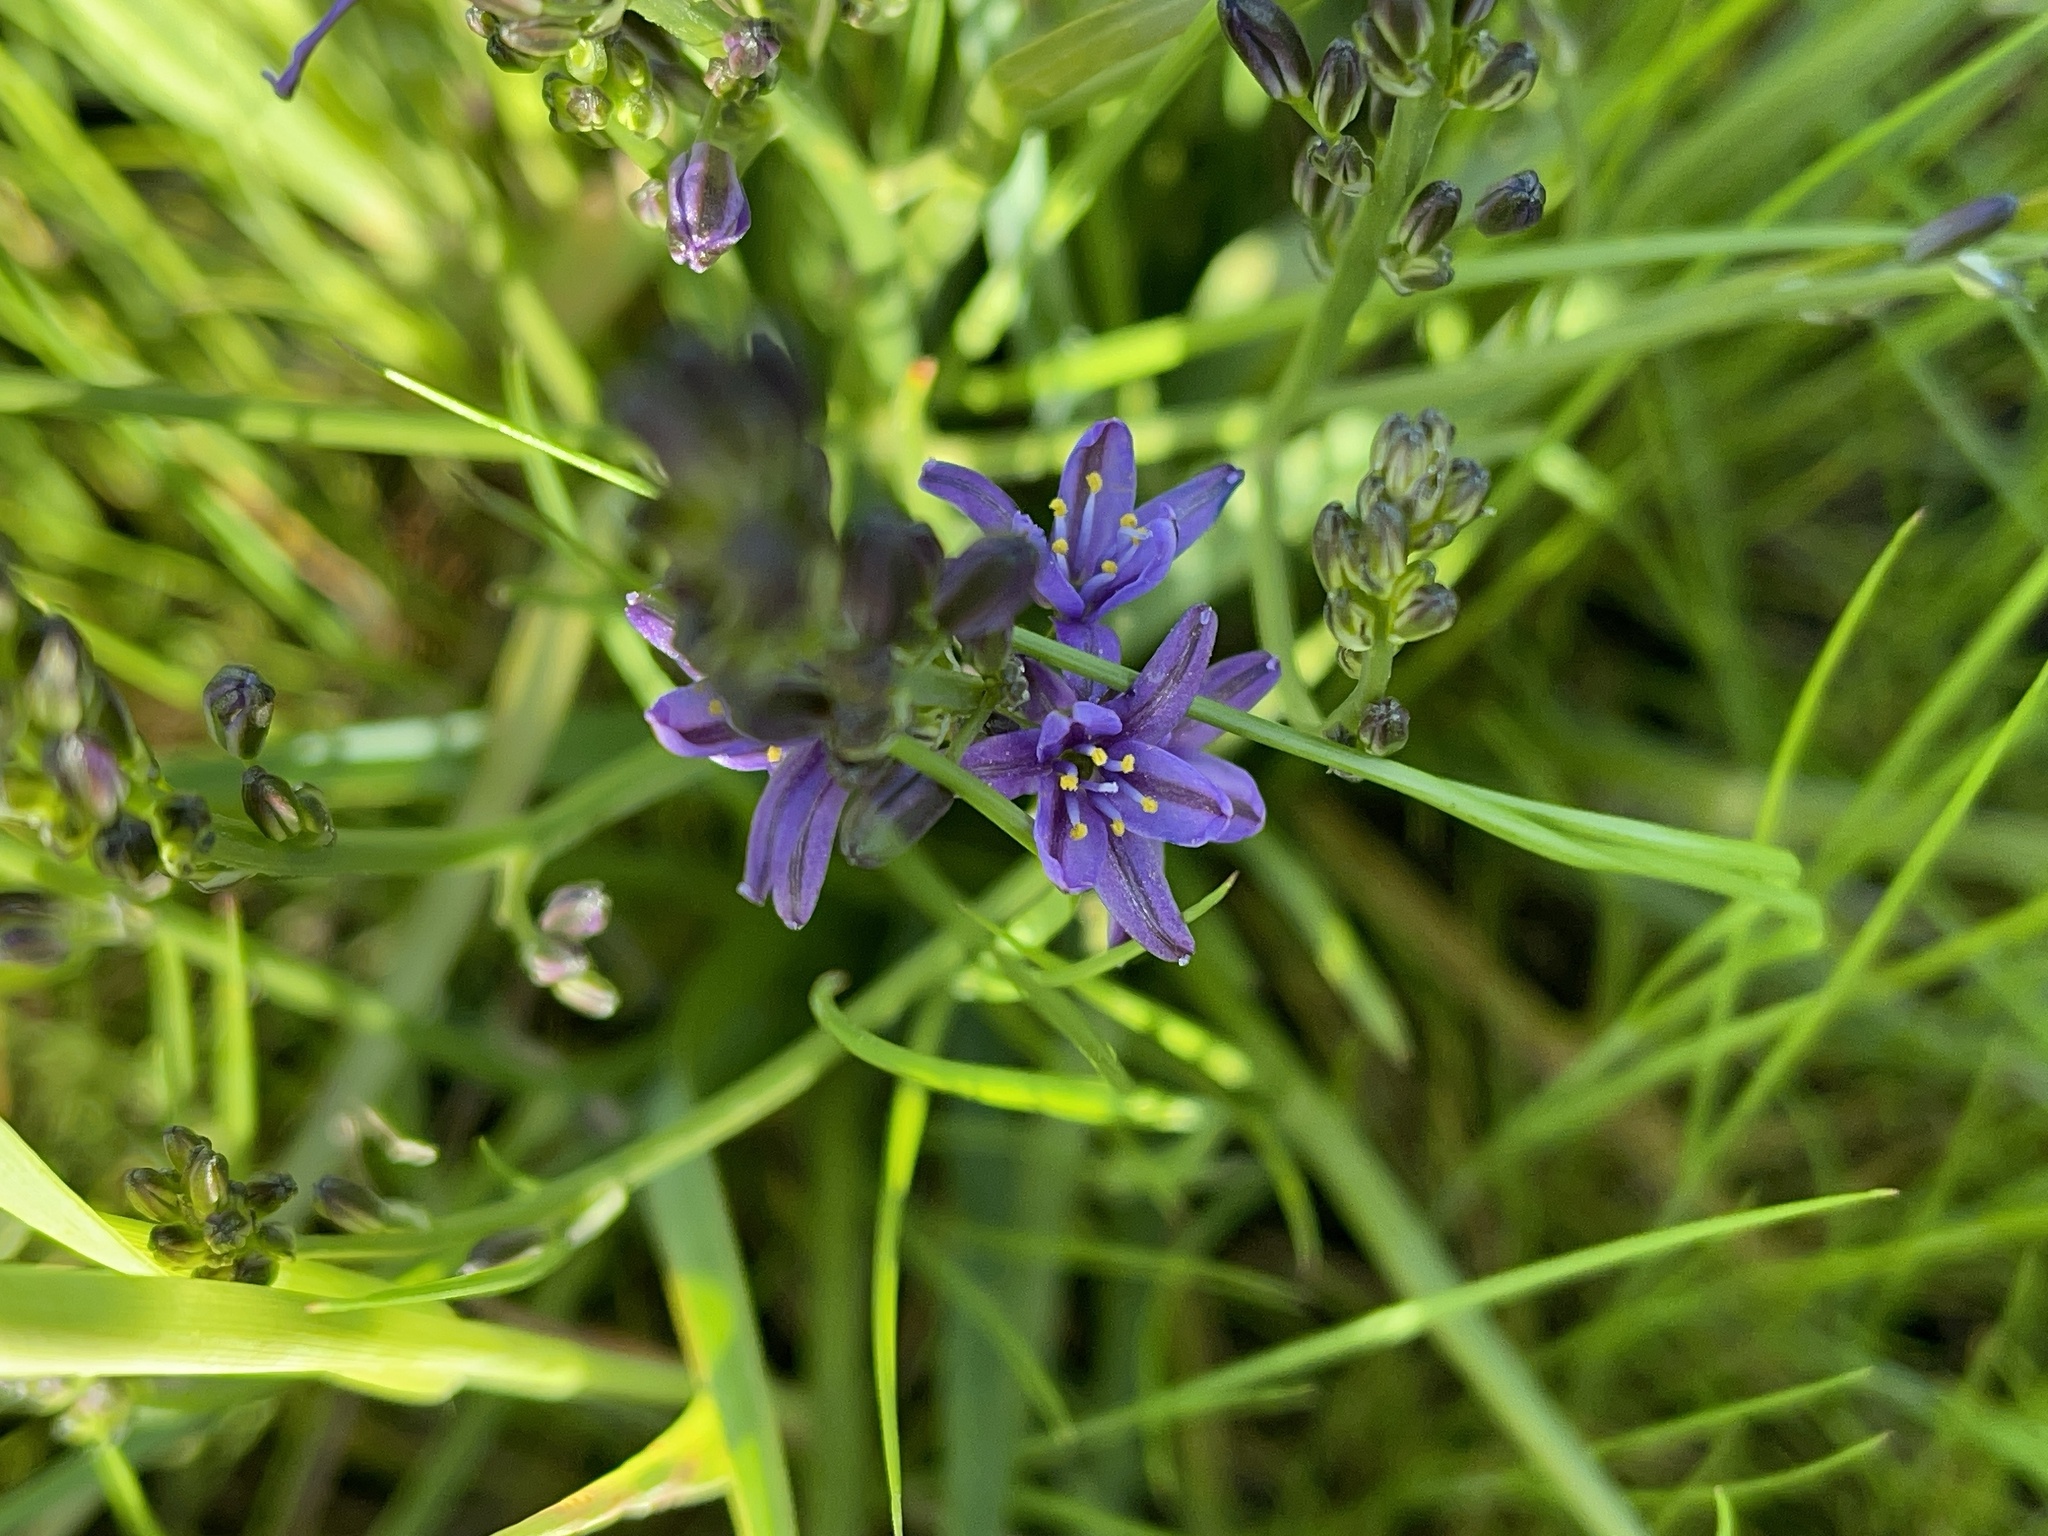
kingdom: Plantae
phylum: Tracheophyta
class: Liliopsida
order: Asparagales
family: Asphodelaceae
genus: Caesia
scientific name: Caesia calliantha
